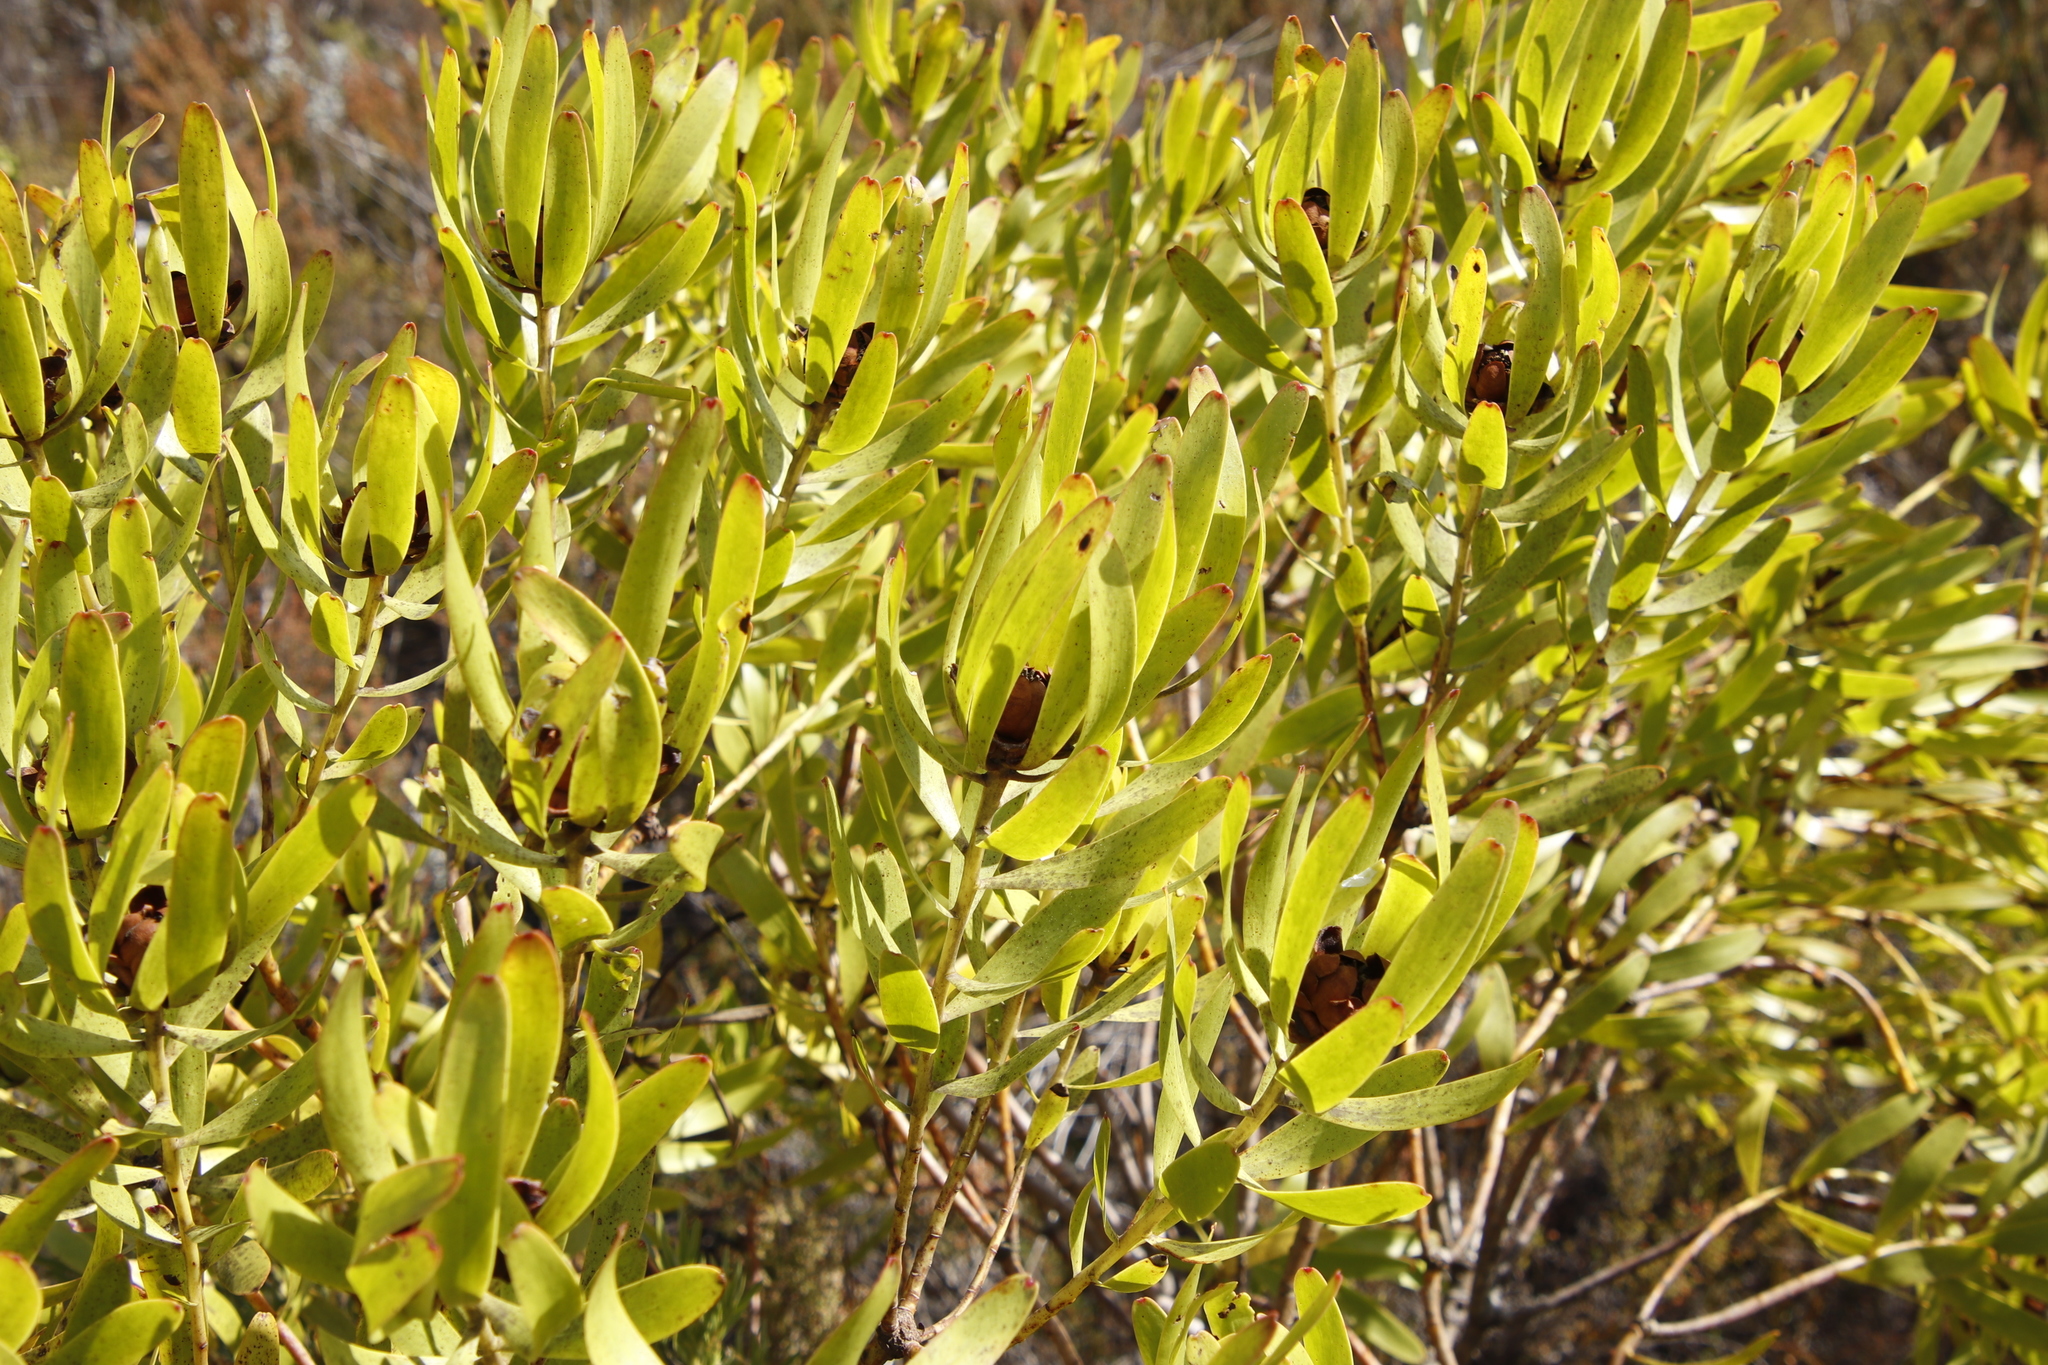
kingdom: Plantae
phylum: Tracheophyta
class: Magnoliopsida
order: Proteales
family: Proteaceae
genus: Leucadendron
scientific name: Leucadendron microcephalum
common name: Oilbract conebush
